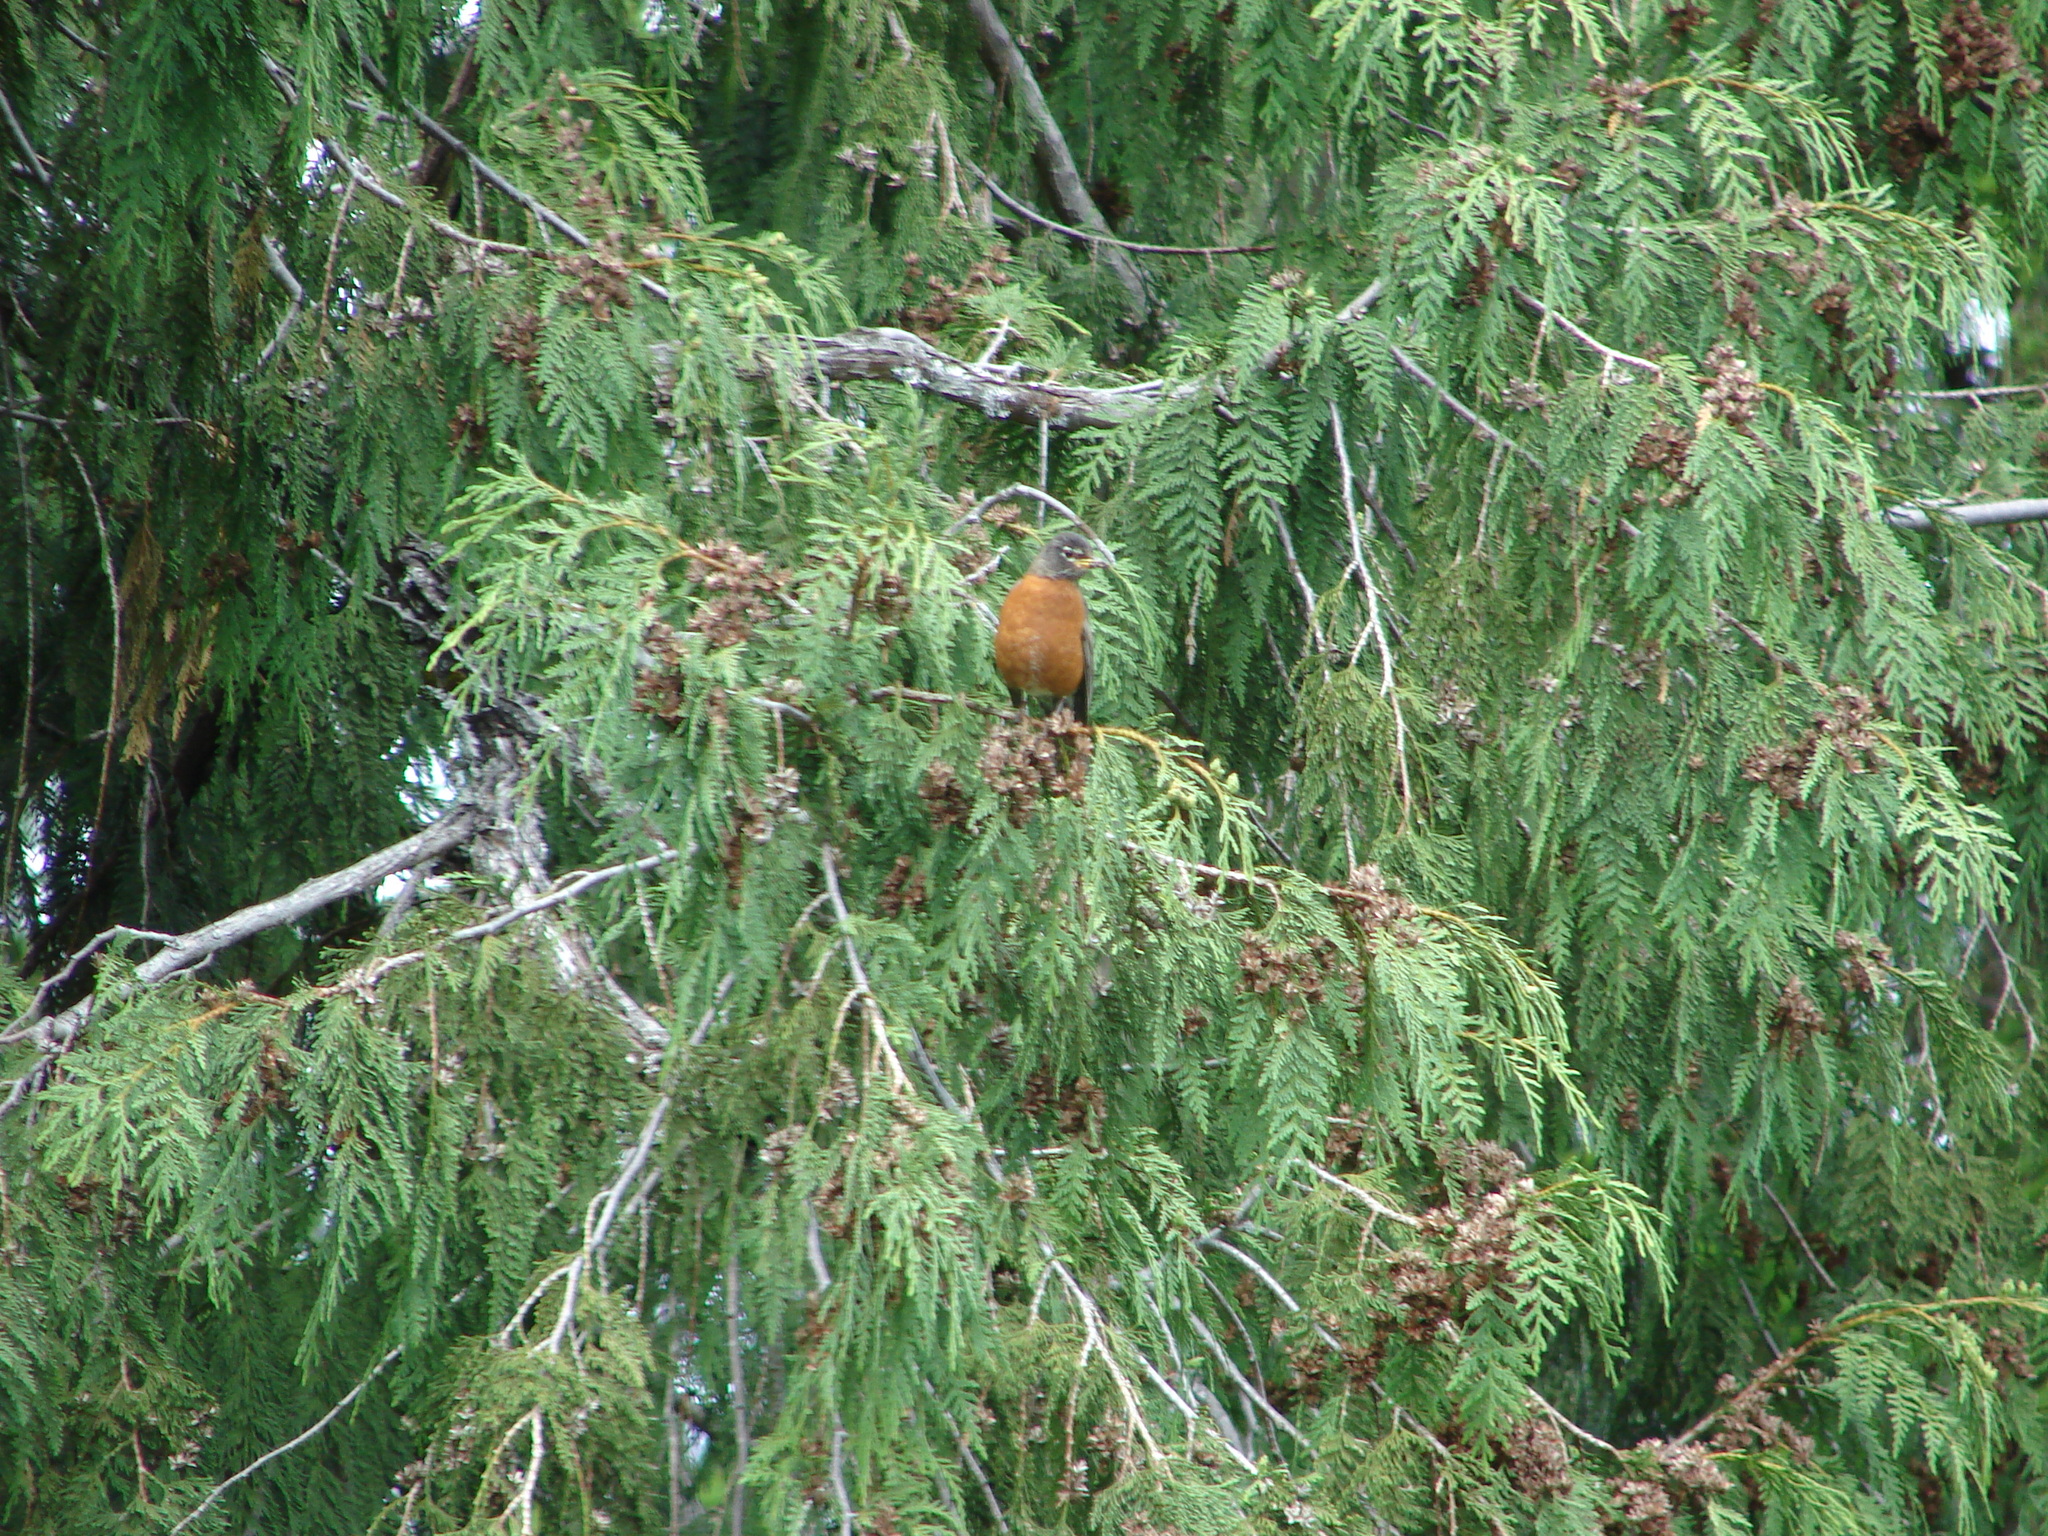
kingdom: Animalia
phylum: Chordata
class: Aves
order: Passeriformes
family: Turdidae
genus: Turdus
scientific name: Turdus migratorius
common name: American robin
